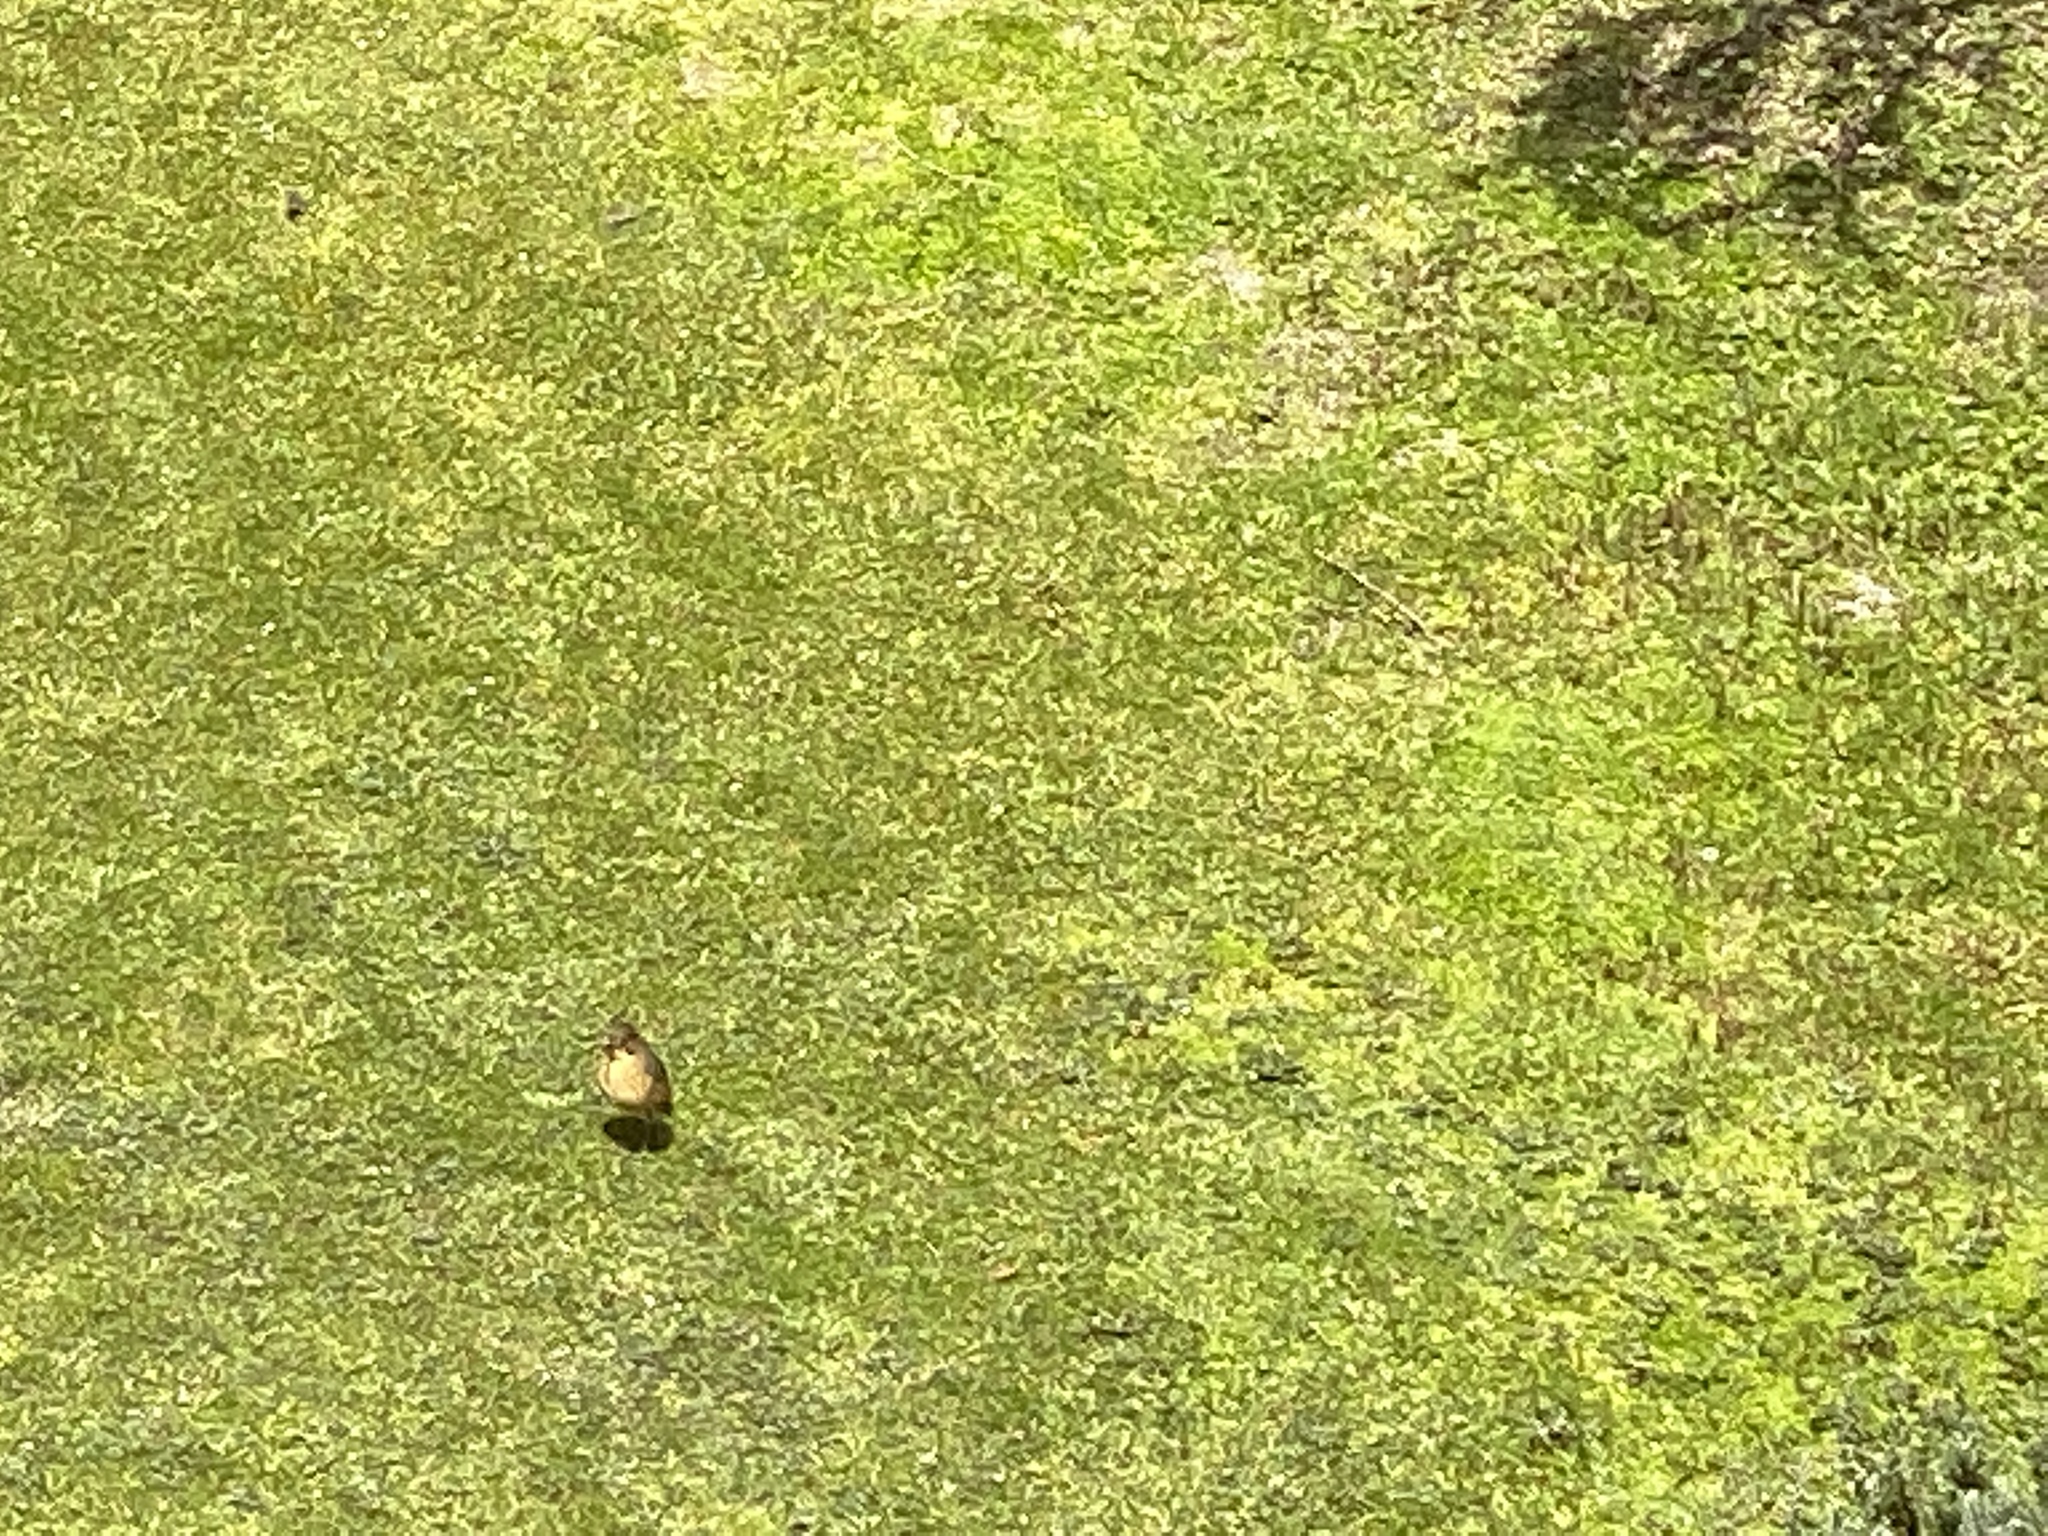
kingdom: Animalia
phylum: Chordata
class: Aves
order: Passeriformes
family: Grallariidae
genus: Grallaria
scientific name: Grallaria quitensis
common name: Tawny antpitta
